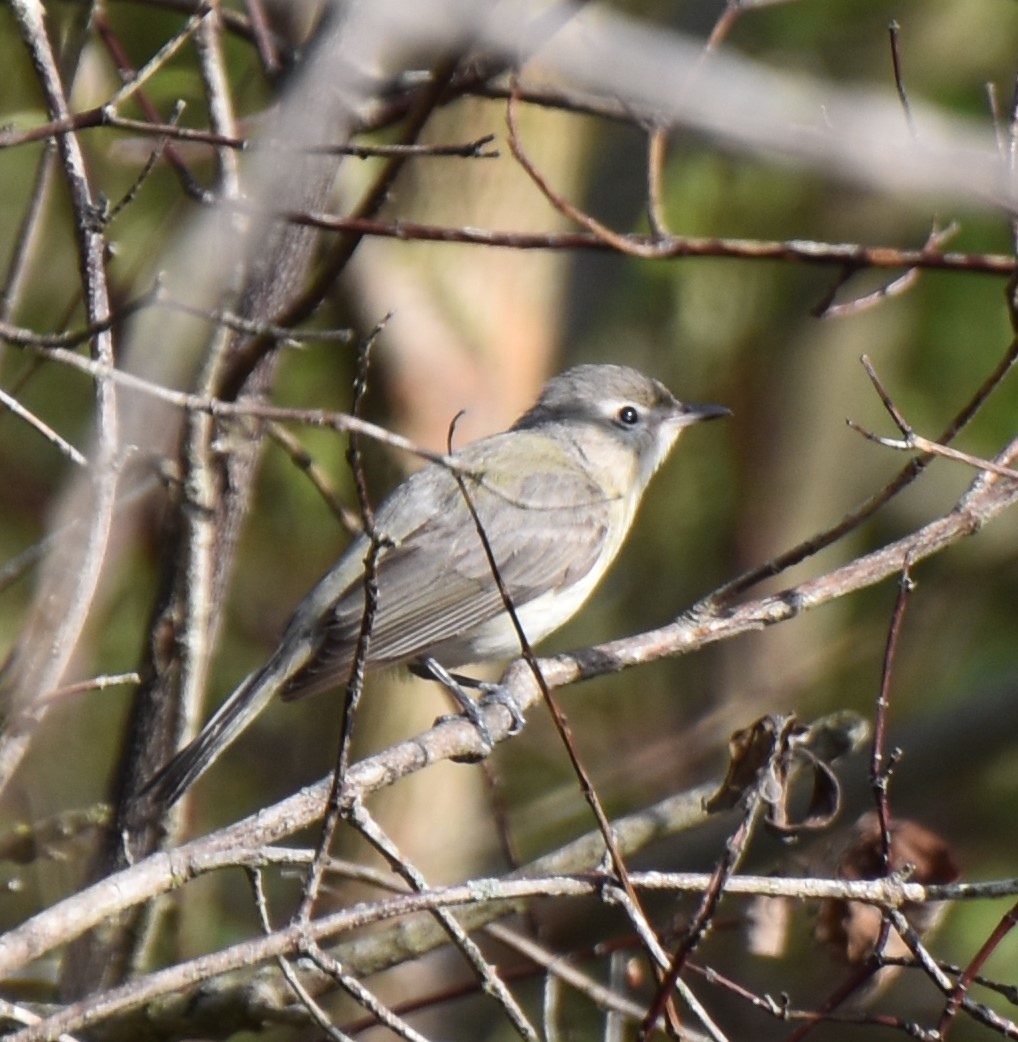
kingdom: Animalia
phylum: Chordata
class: Aves
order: Passeriformes
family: Vireonidae
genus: Vireo
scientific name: Vireo gilvus
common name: Warbling vireo
